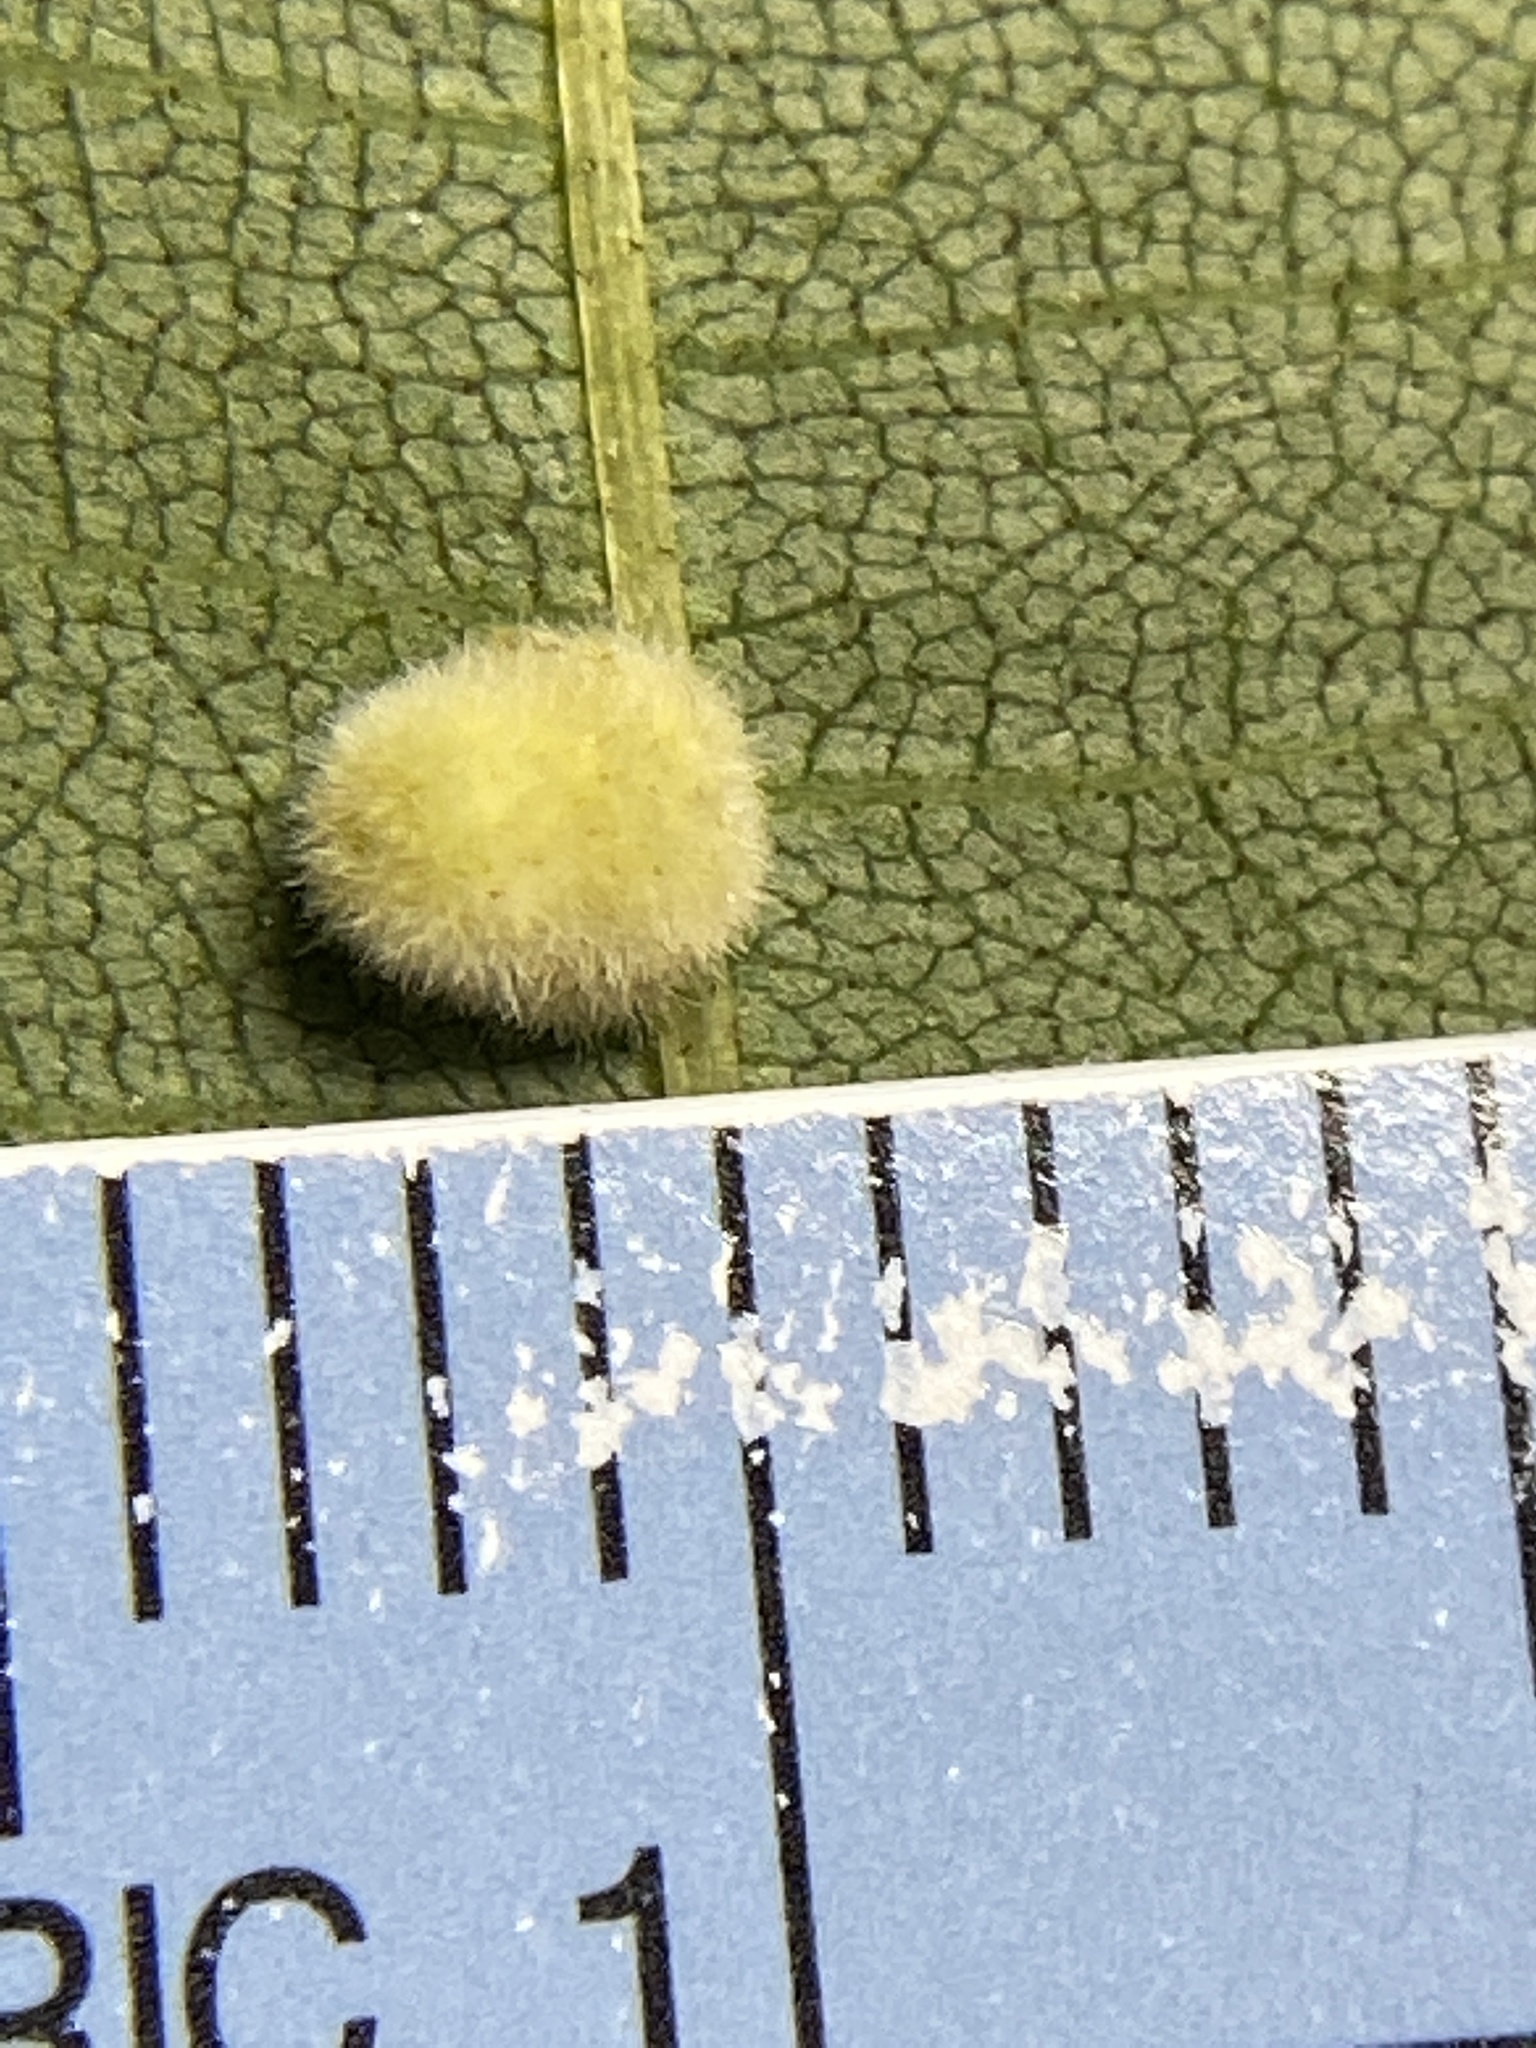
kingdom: Animalia
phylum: Arthropoda
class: Insecta
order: Diptera
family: Cecidomyiidae
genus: Caryomyia
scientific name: Caryomyia persicoides
